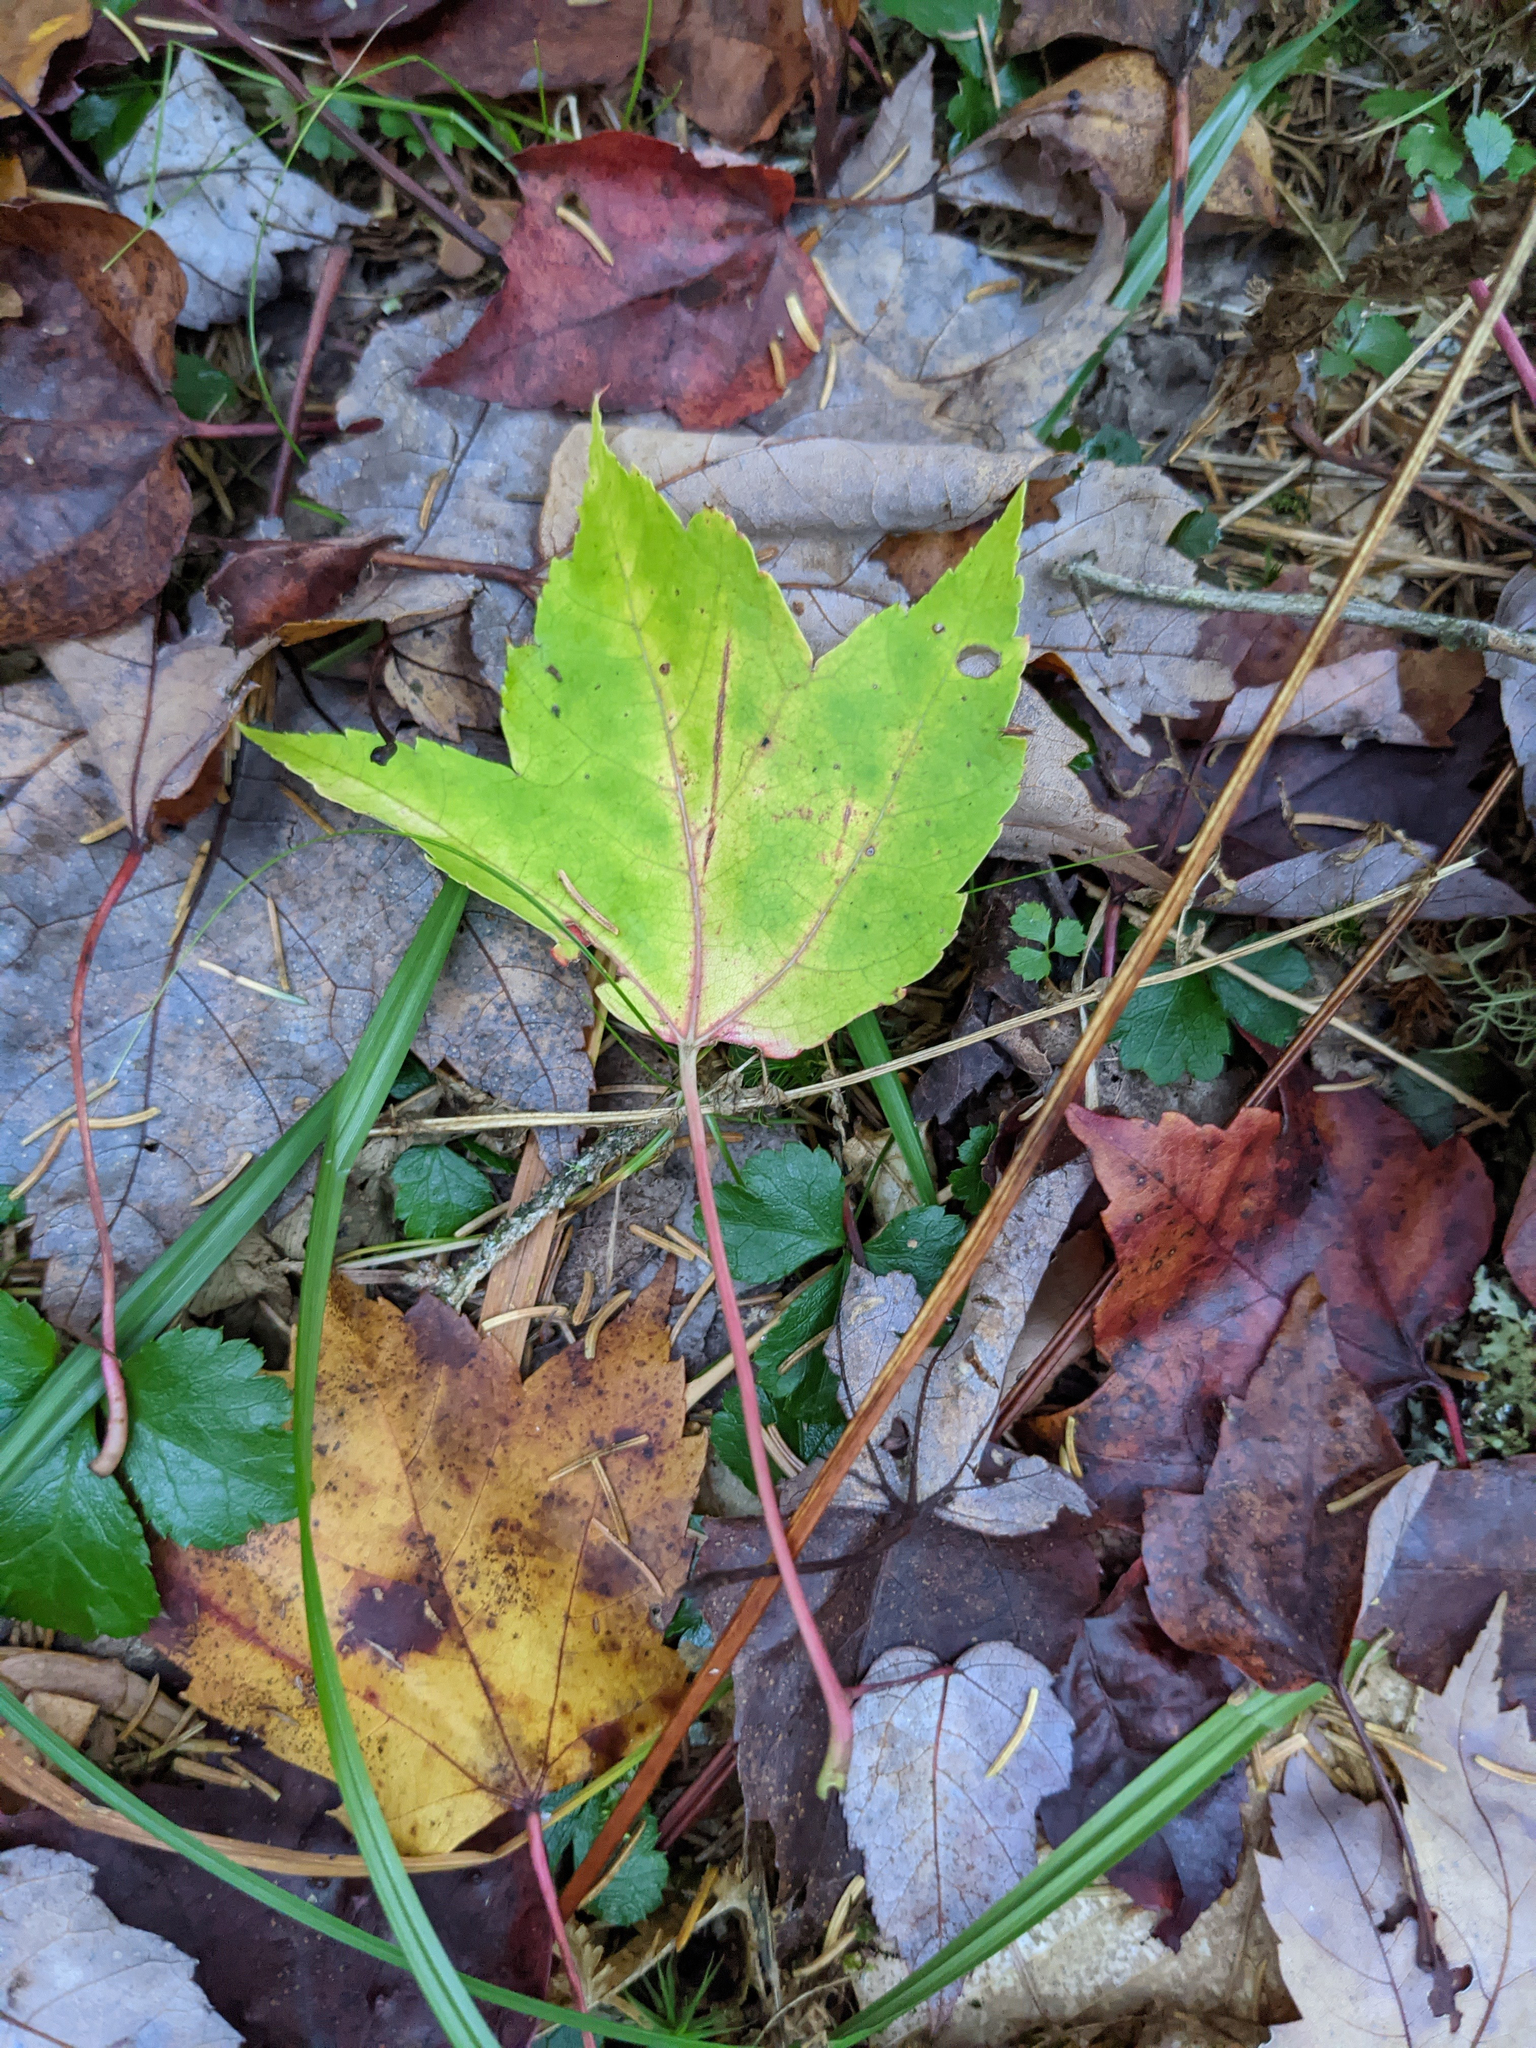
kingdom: Plantae
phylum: Tracheophyta
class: Magnoliopsida
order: Sapindales
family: Sapindaceae
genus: Acer
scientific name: Acer rubrum
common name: Red maple
